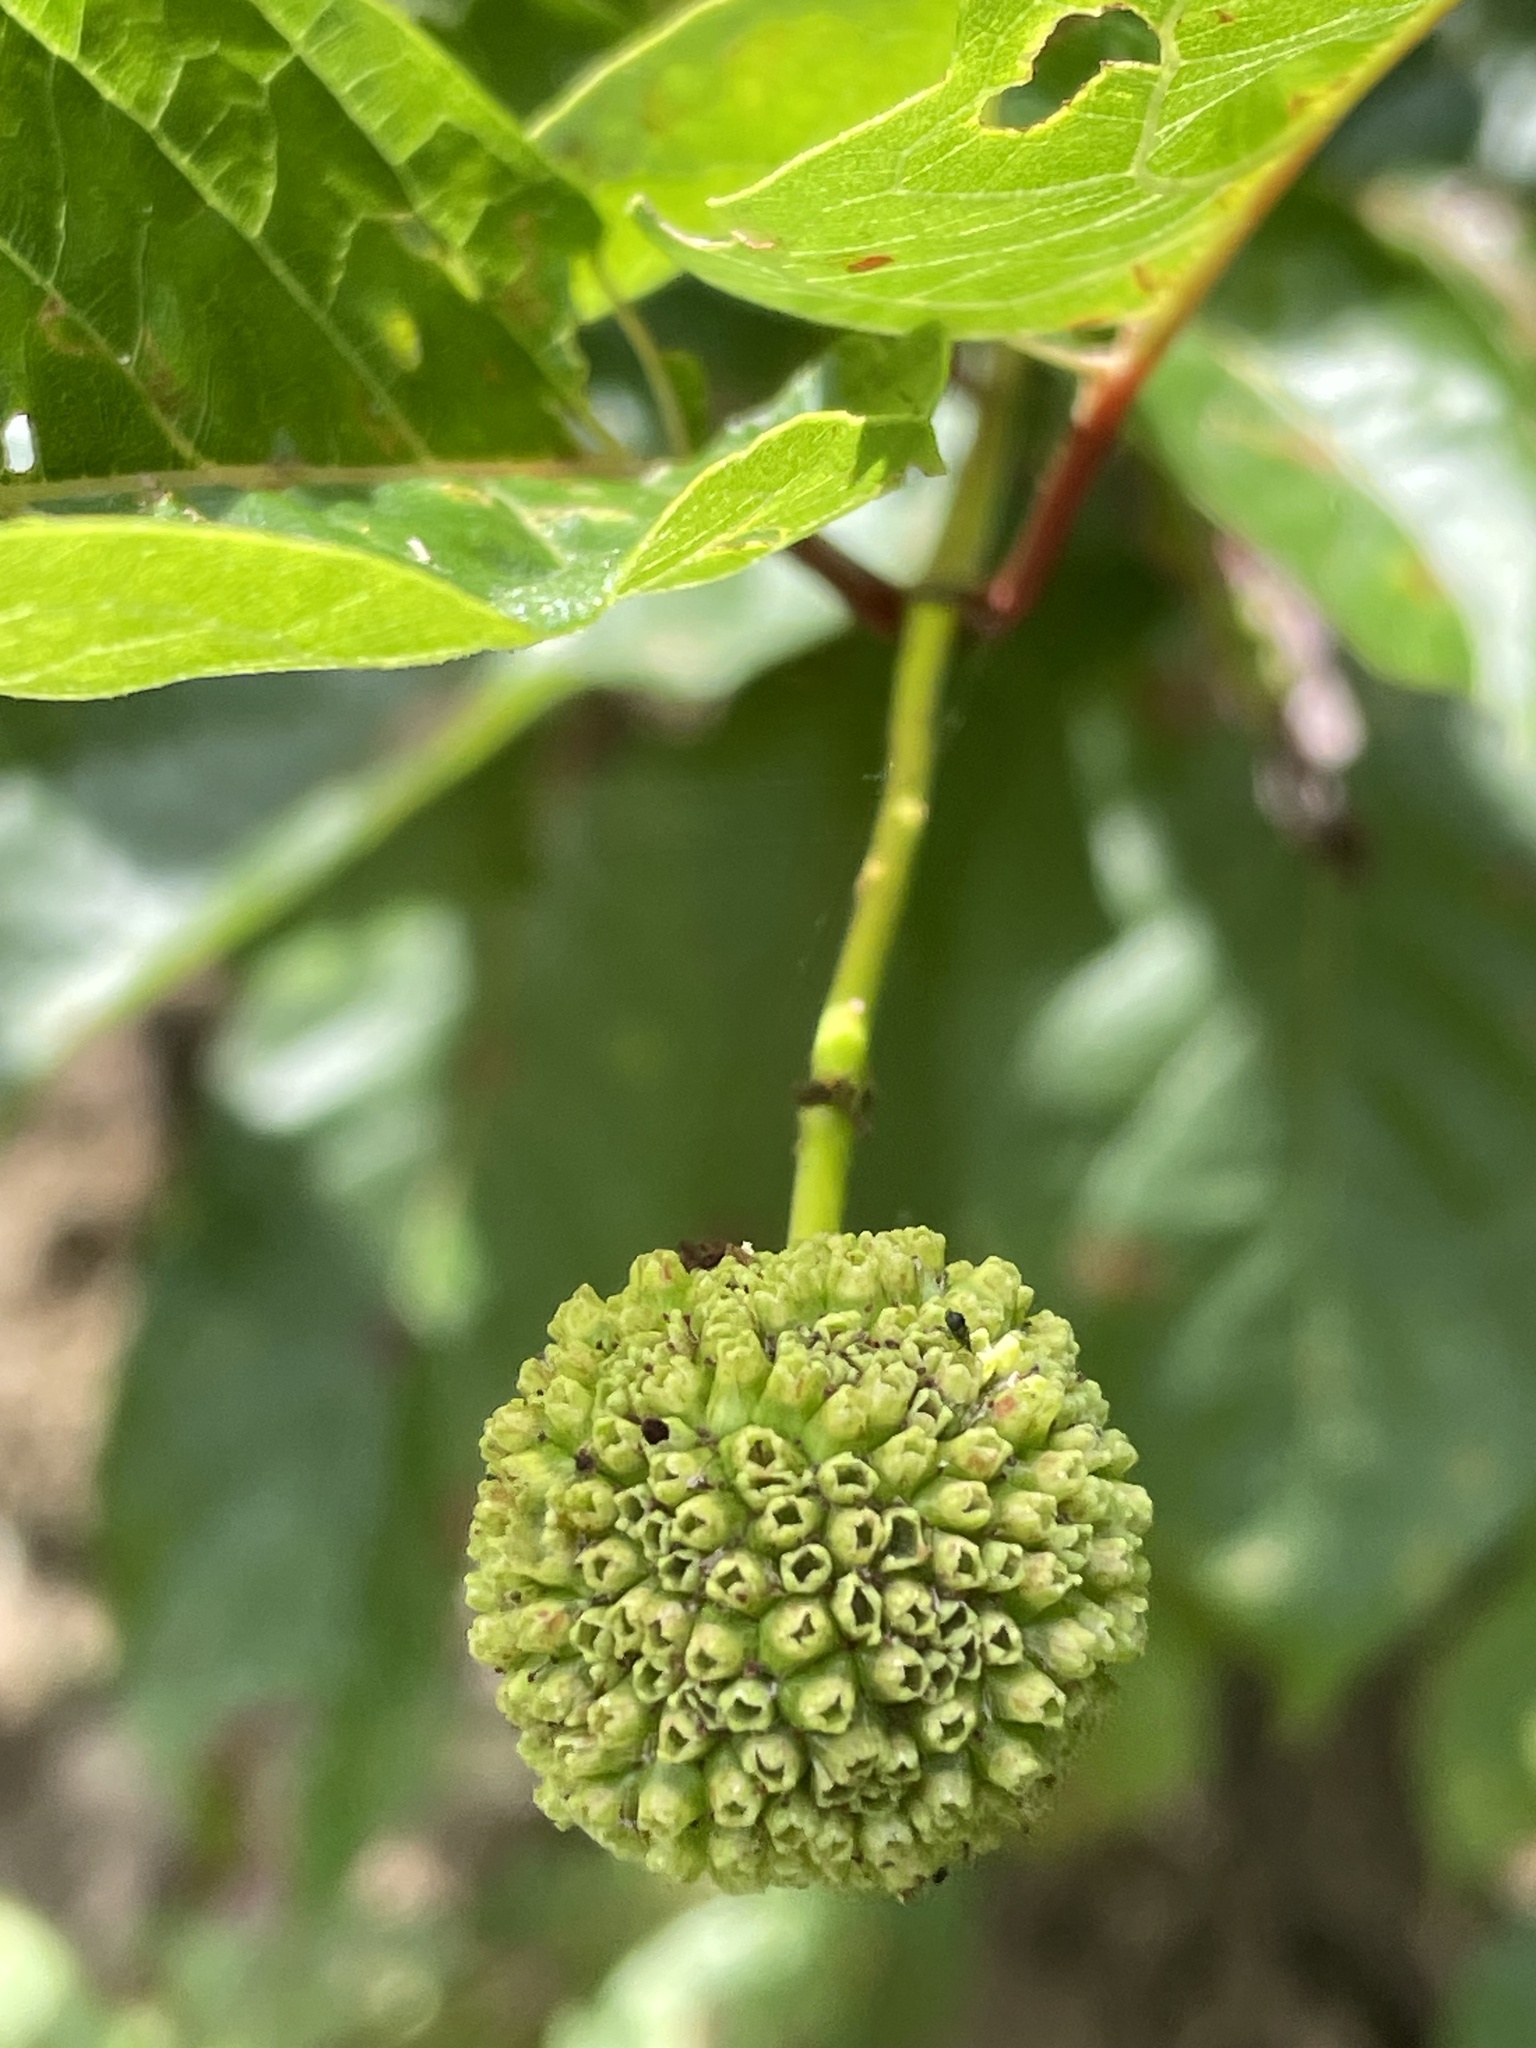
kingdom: Plantae
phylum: Tracheophyta
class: Magnoliopsida
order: Gentianales
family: Rubiaceae
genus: Cephalanthus
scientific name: Cephalanthus occidentalis
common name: Button-willow
